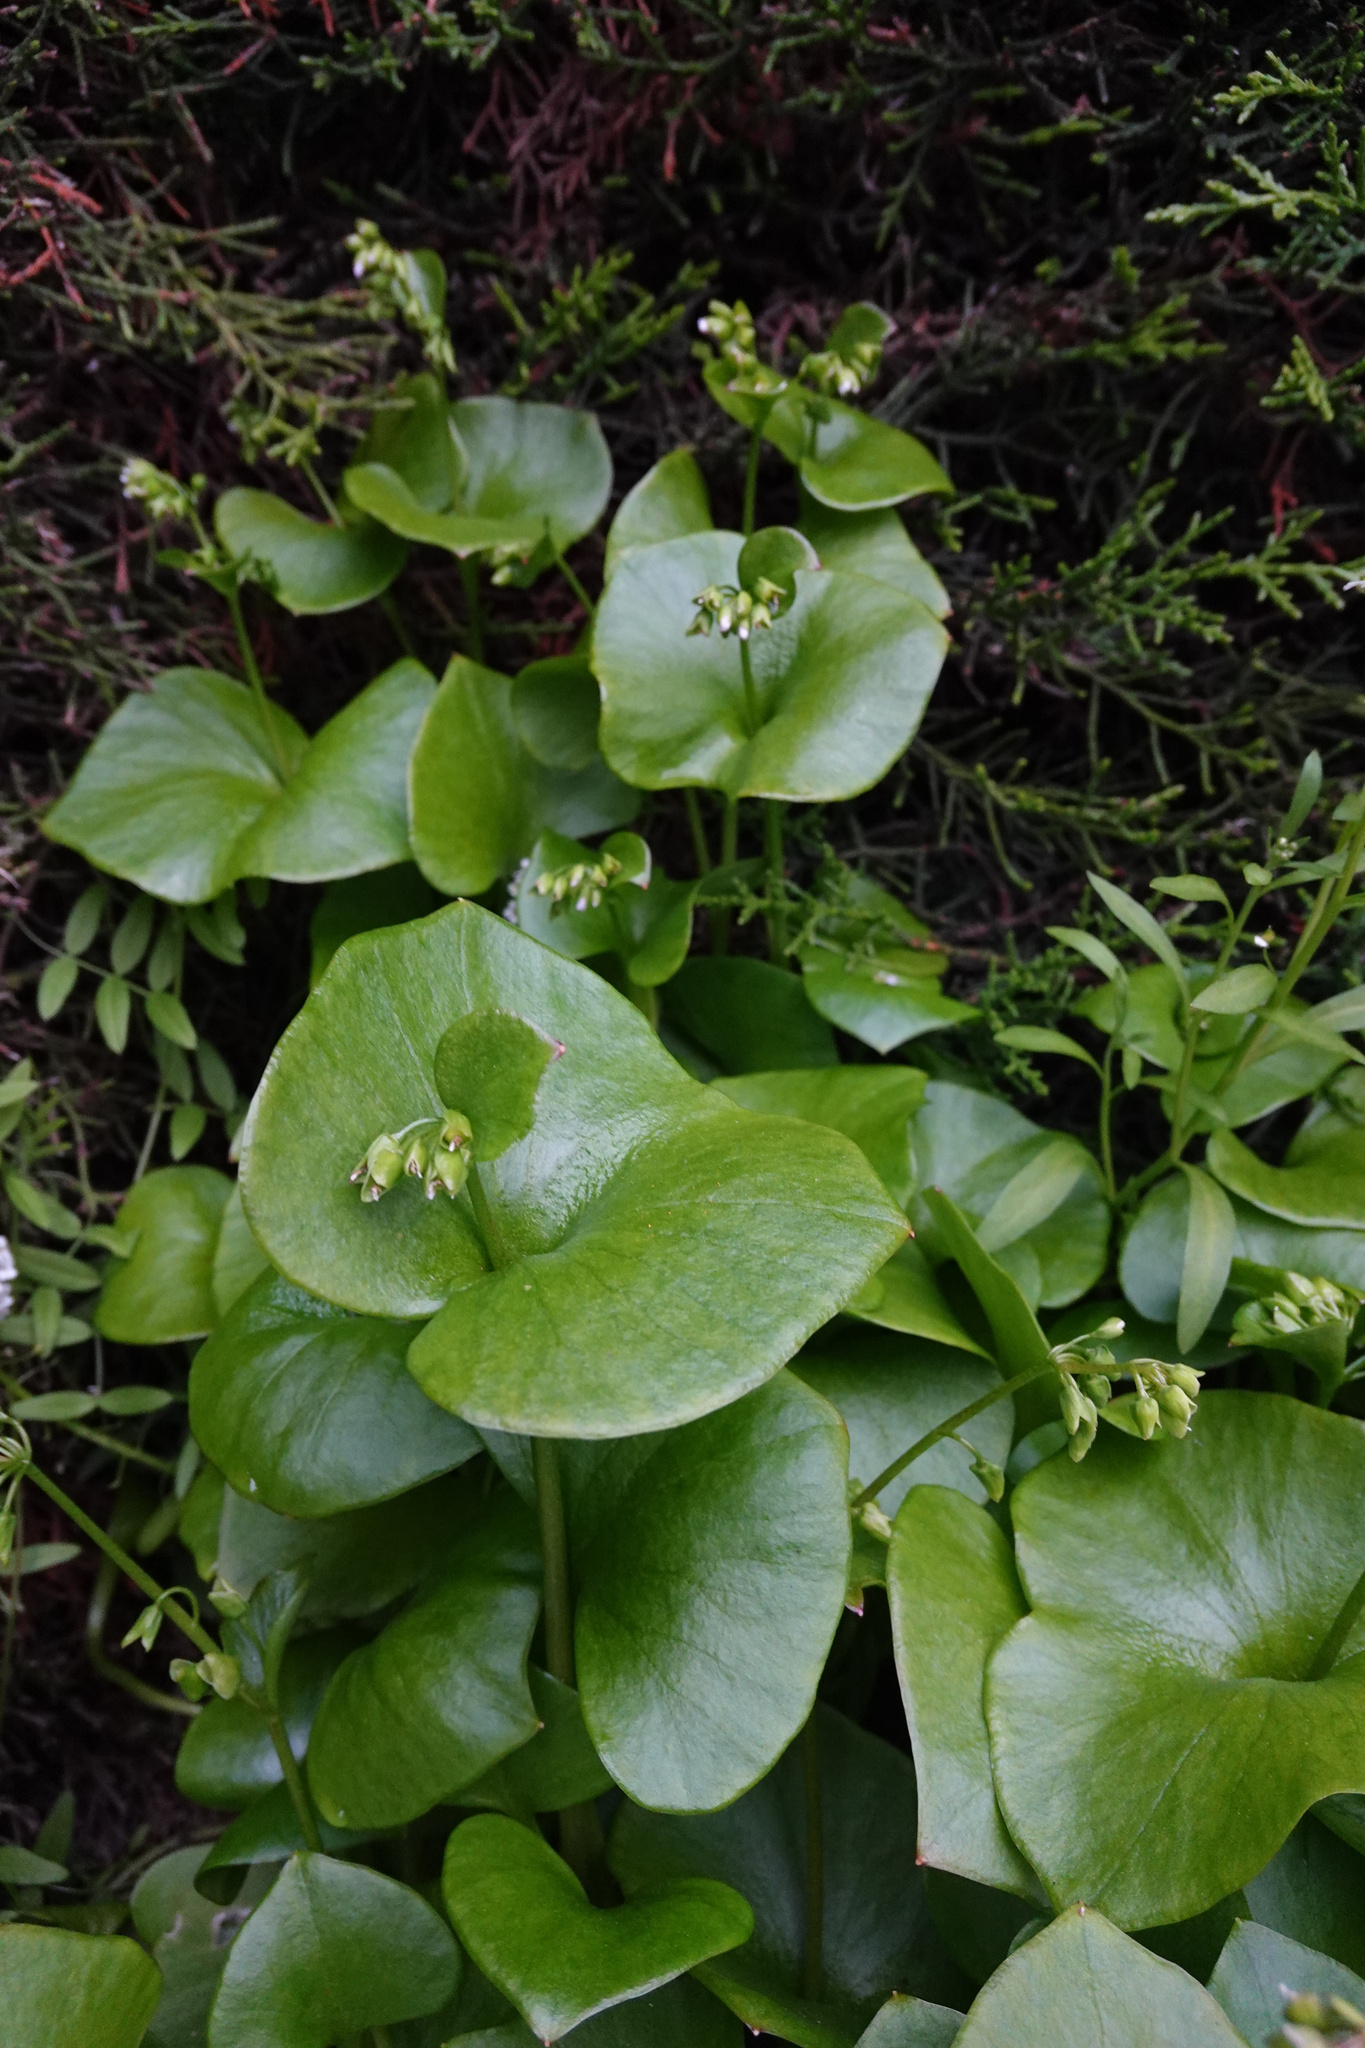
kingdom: Plantae
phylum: Tracheophyta
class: Magnoliopsida
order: Caryophyllales
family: Montiaceae
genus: Claytonia
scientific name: Claytonia perfoliata
